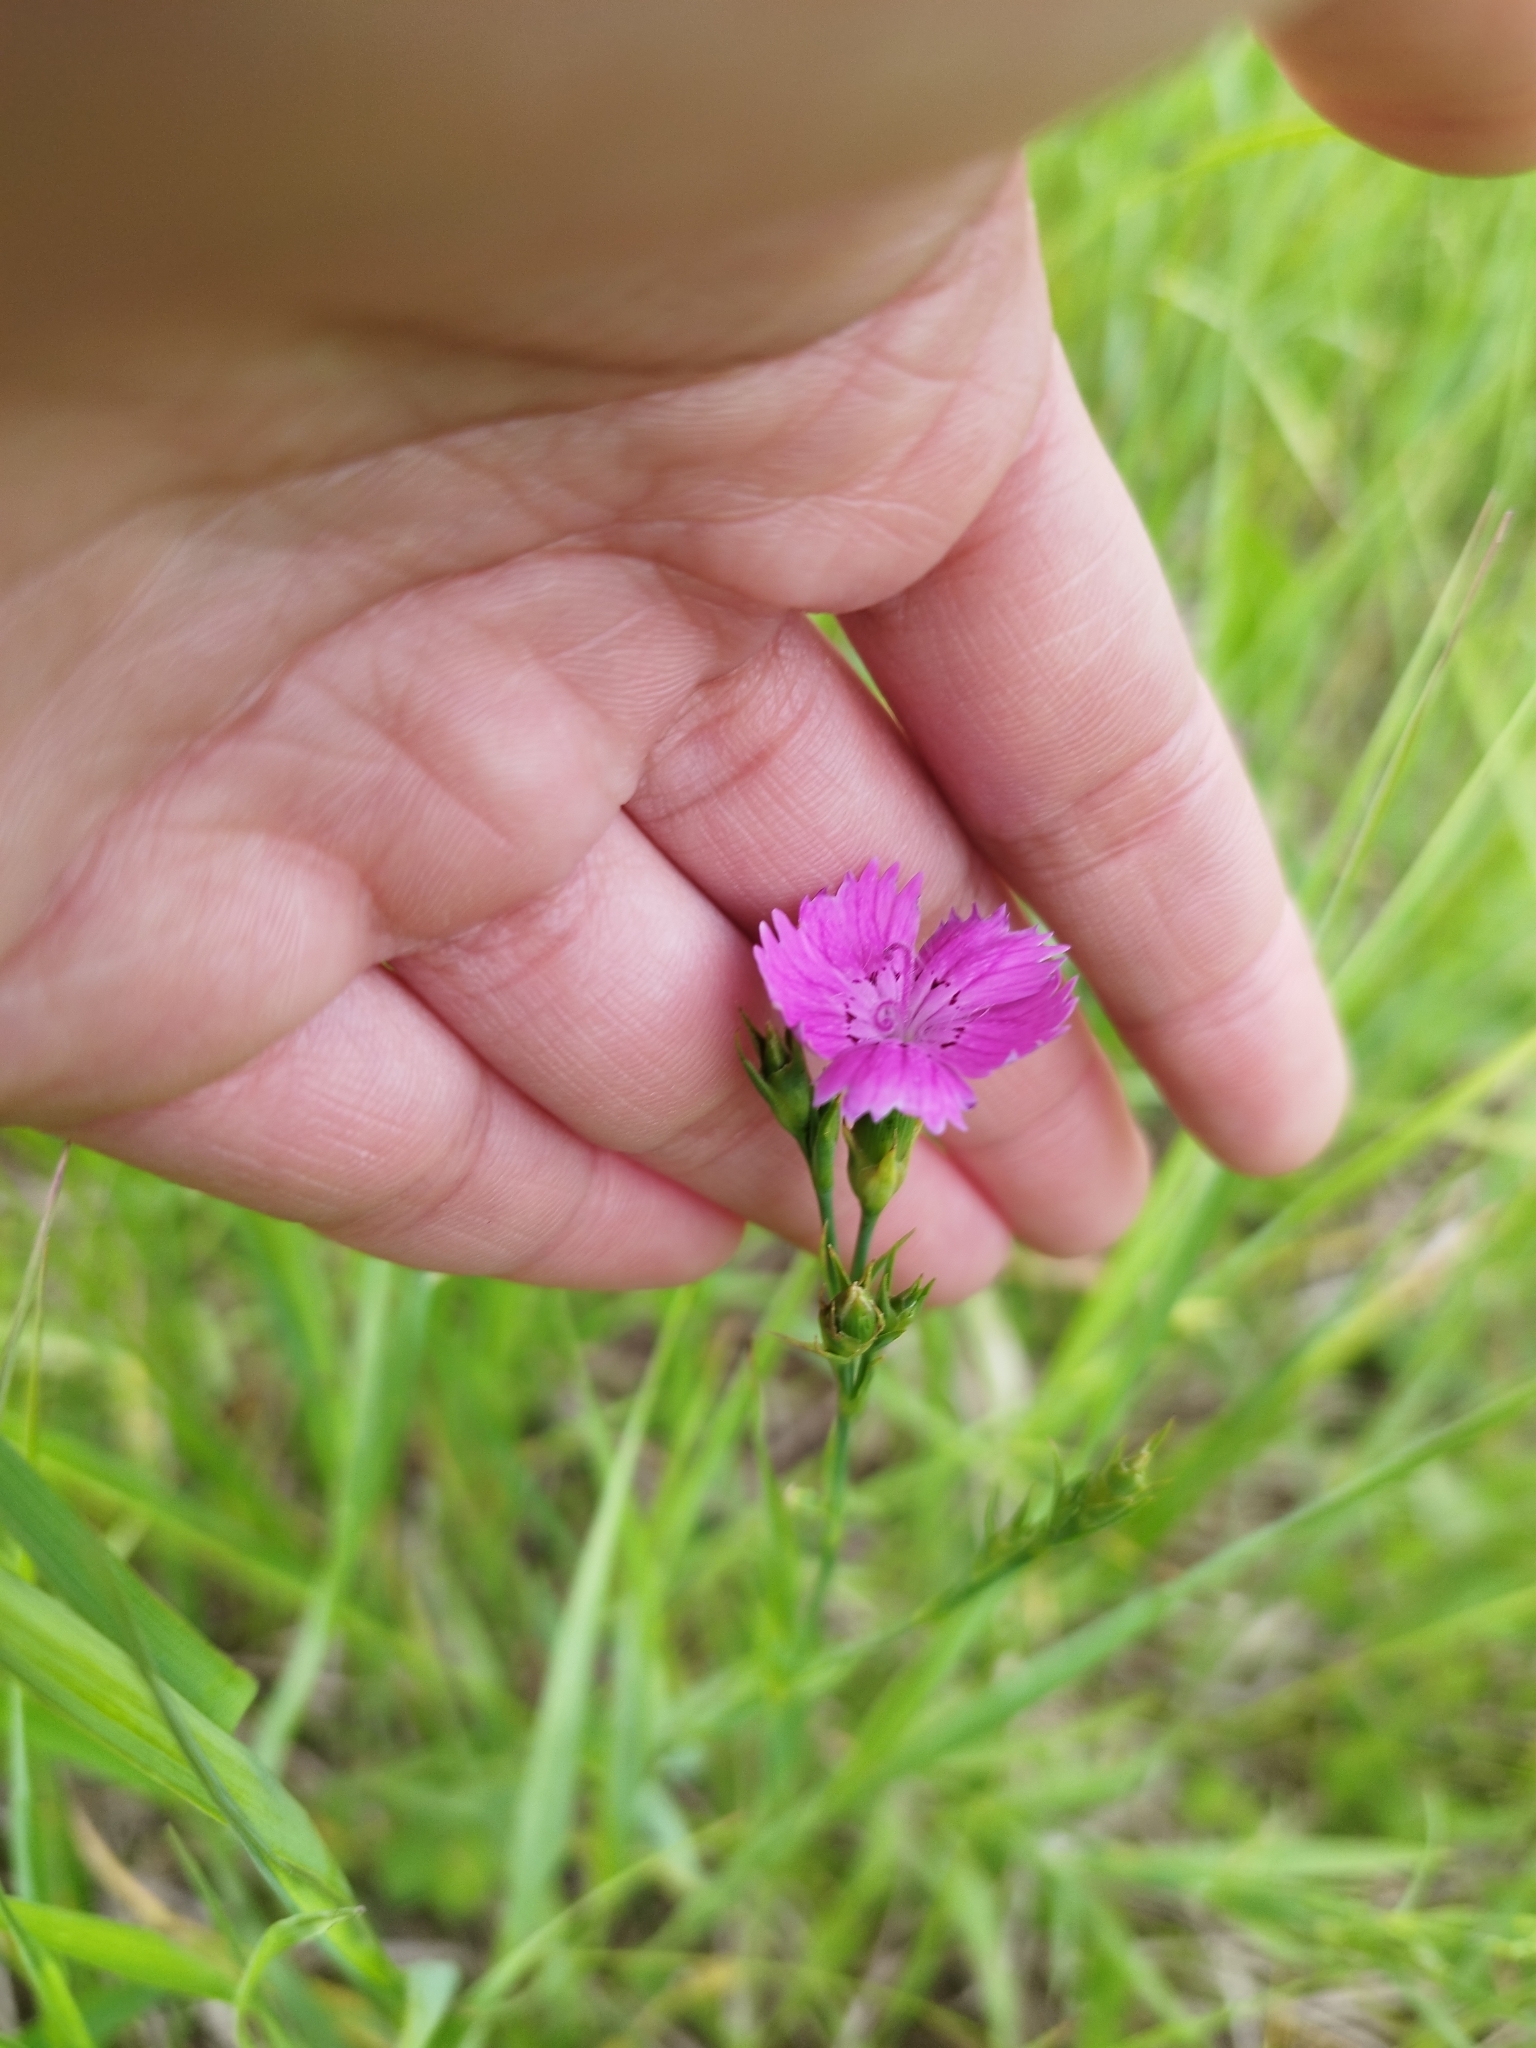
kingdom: Plantae
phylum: Tracheophyta
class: Magnoliopsida
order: Caryophyllales
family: Caryophyllaceae
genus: Dianthus
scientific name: Dianthus chinensis
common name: Rainbow pink
